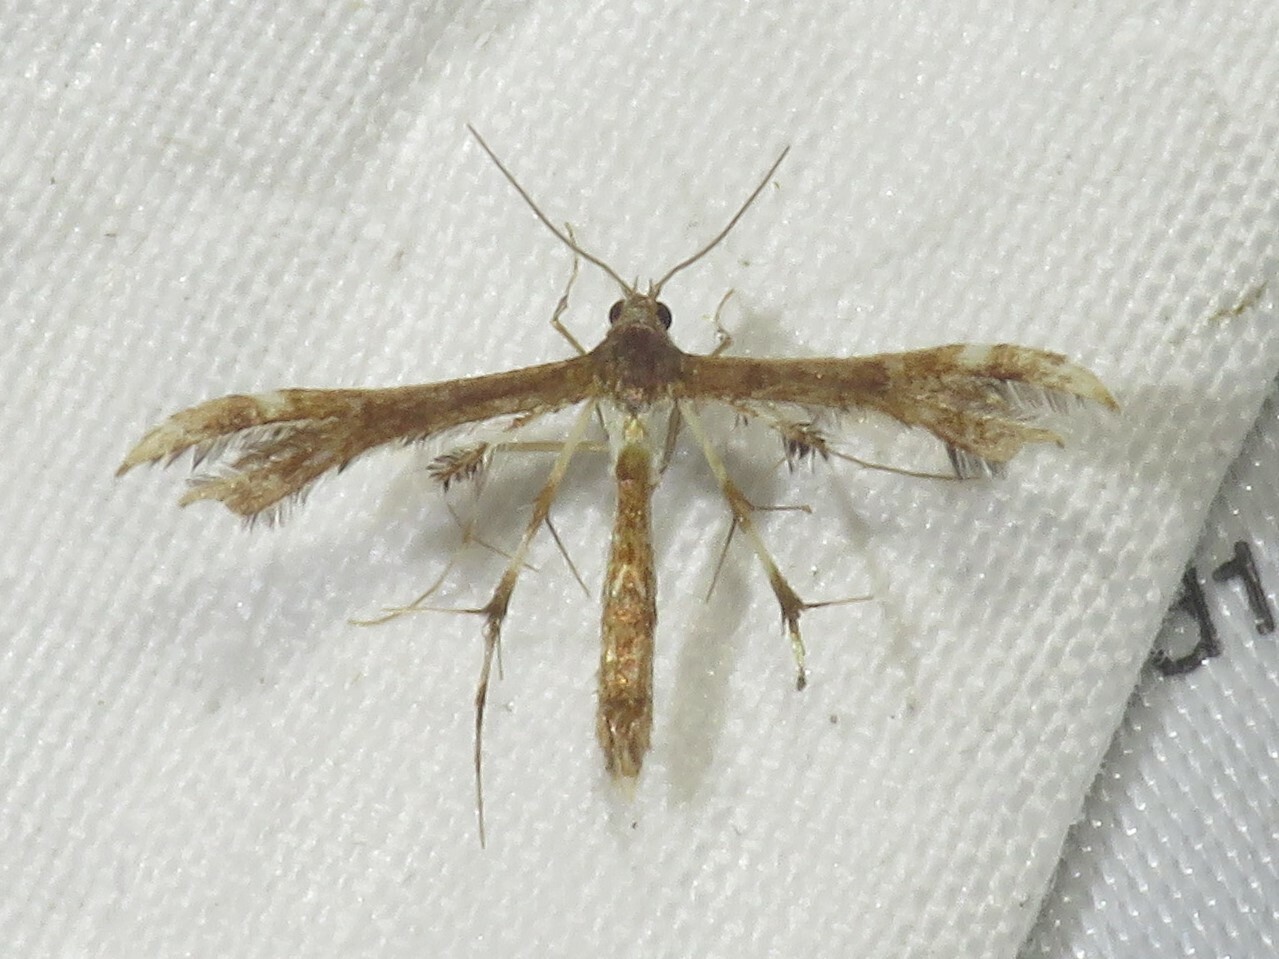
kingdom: Animalia
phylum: Arthropoda
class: Insecta
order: Lepidoptera
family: Pterophoridae
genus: Geina
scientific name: Geina
